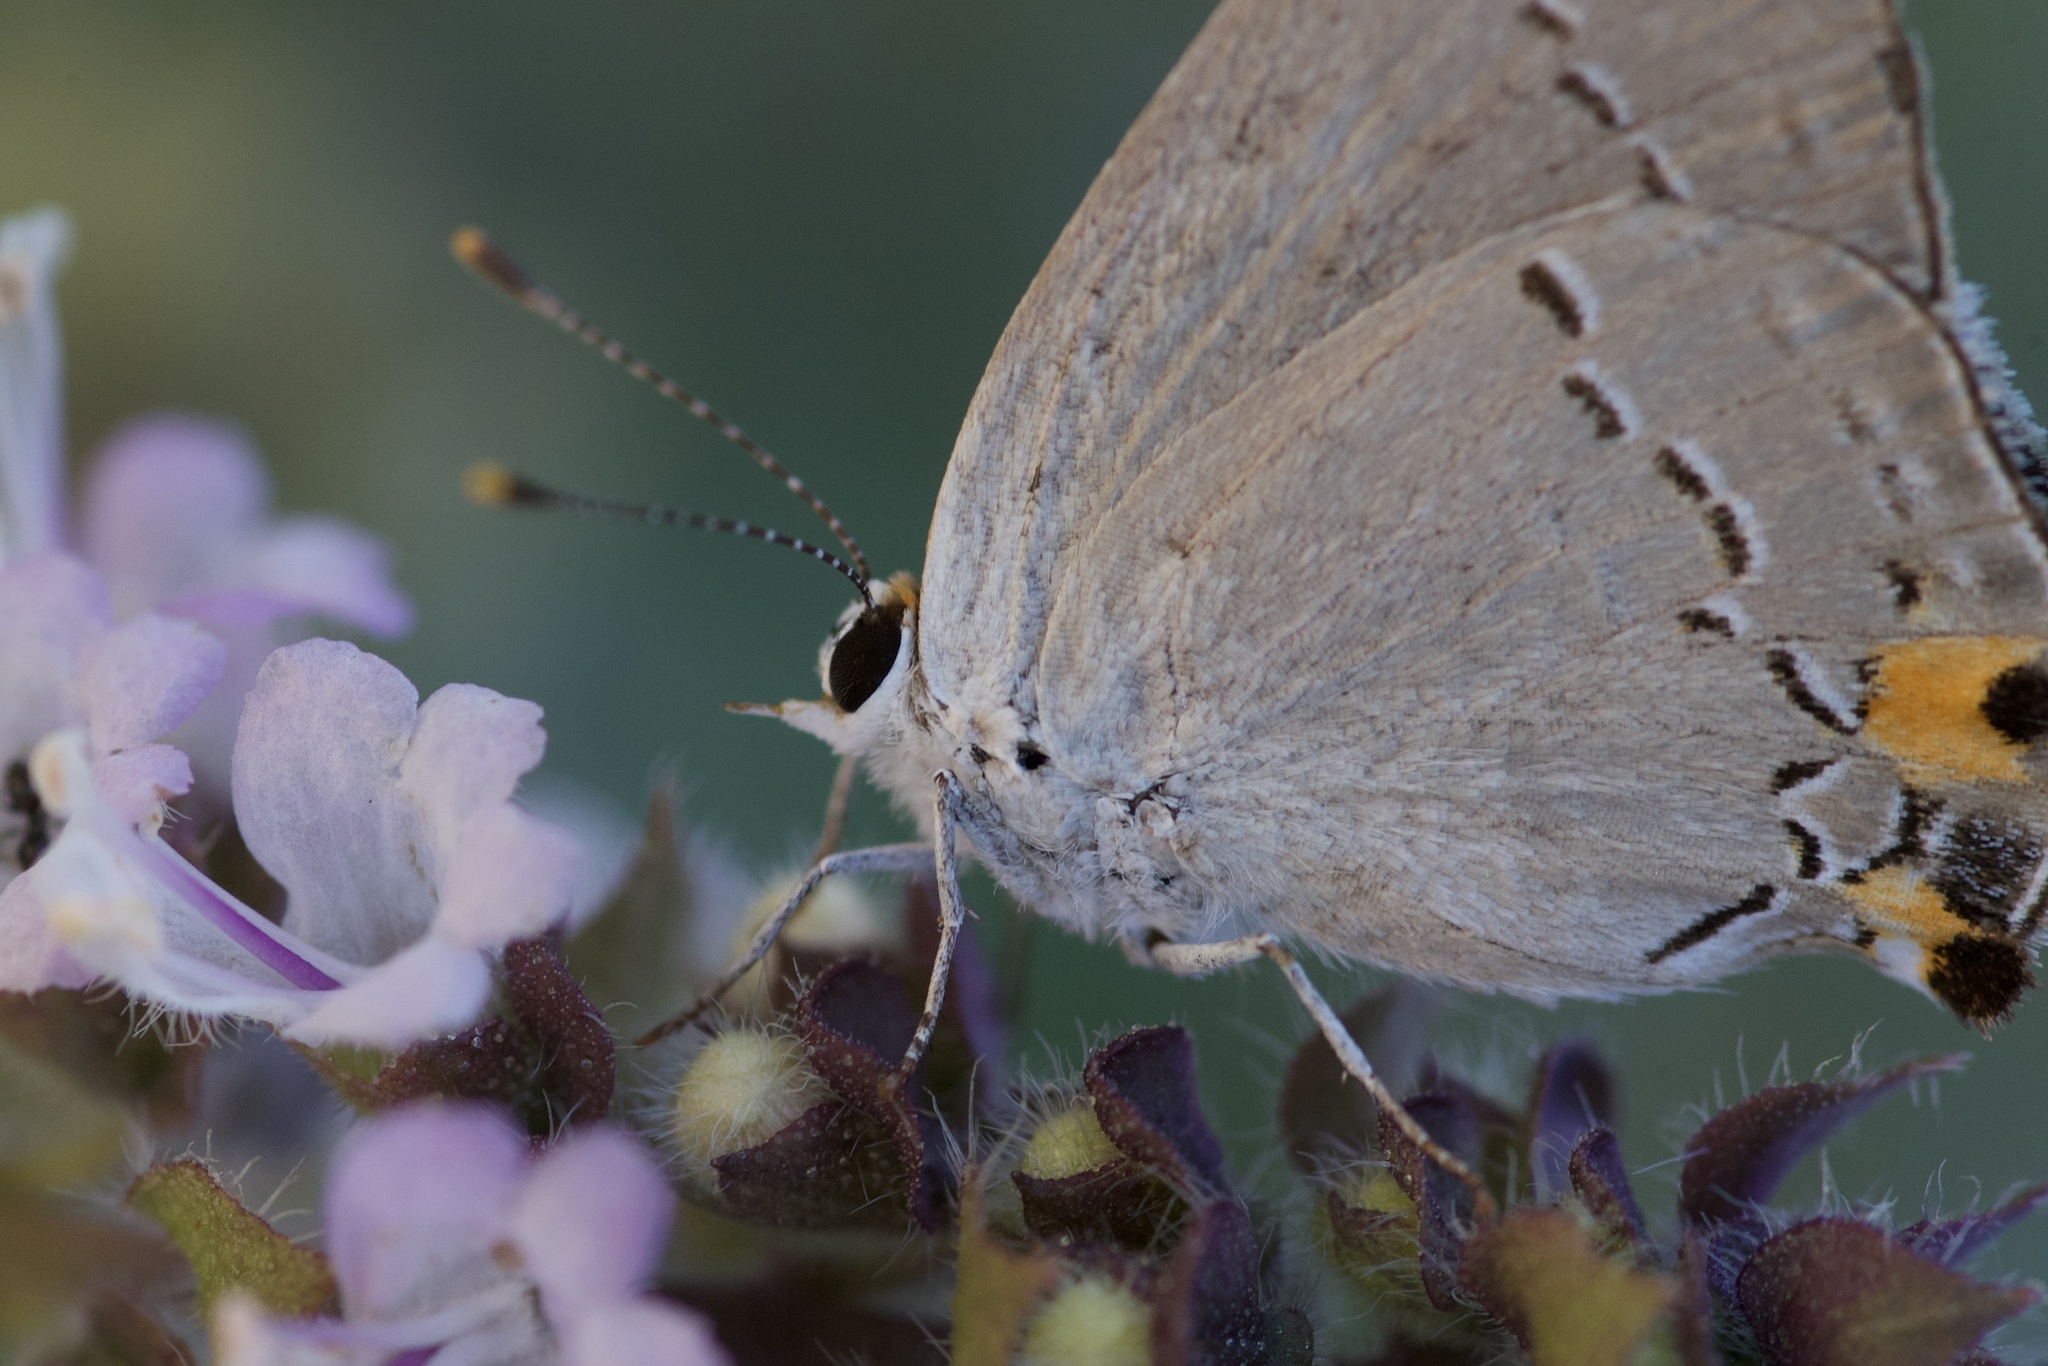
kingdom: Animalia
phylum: Arthropoda
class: Insecta
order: Lepidoptera
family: Lycaenidae
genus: Strymon
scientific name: Strymon melinus
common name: Gray hairstreak
